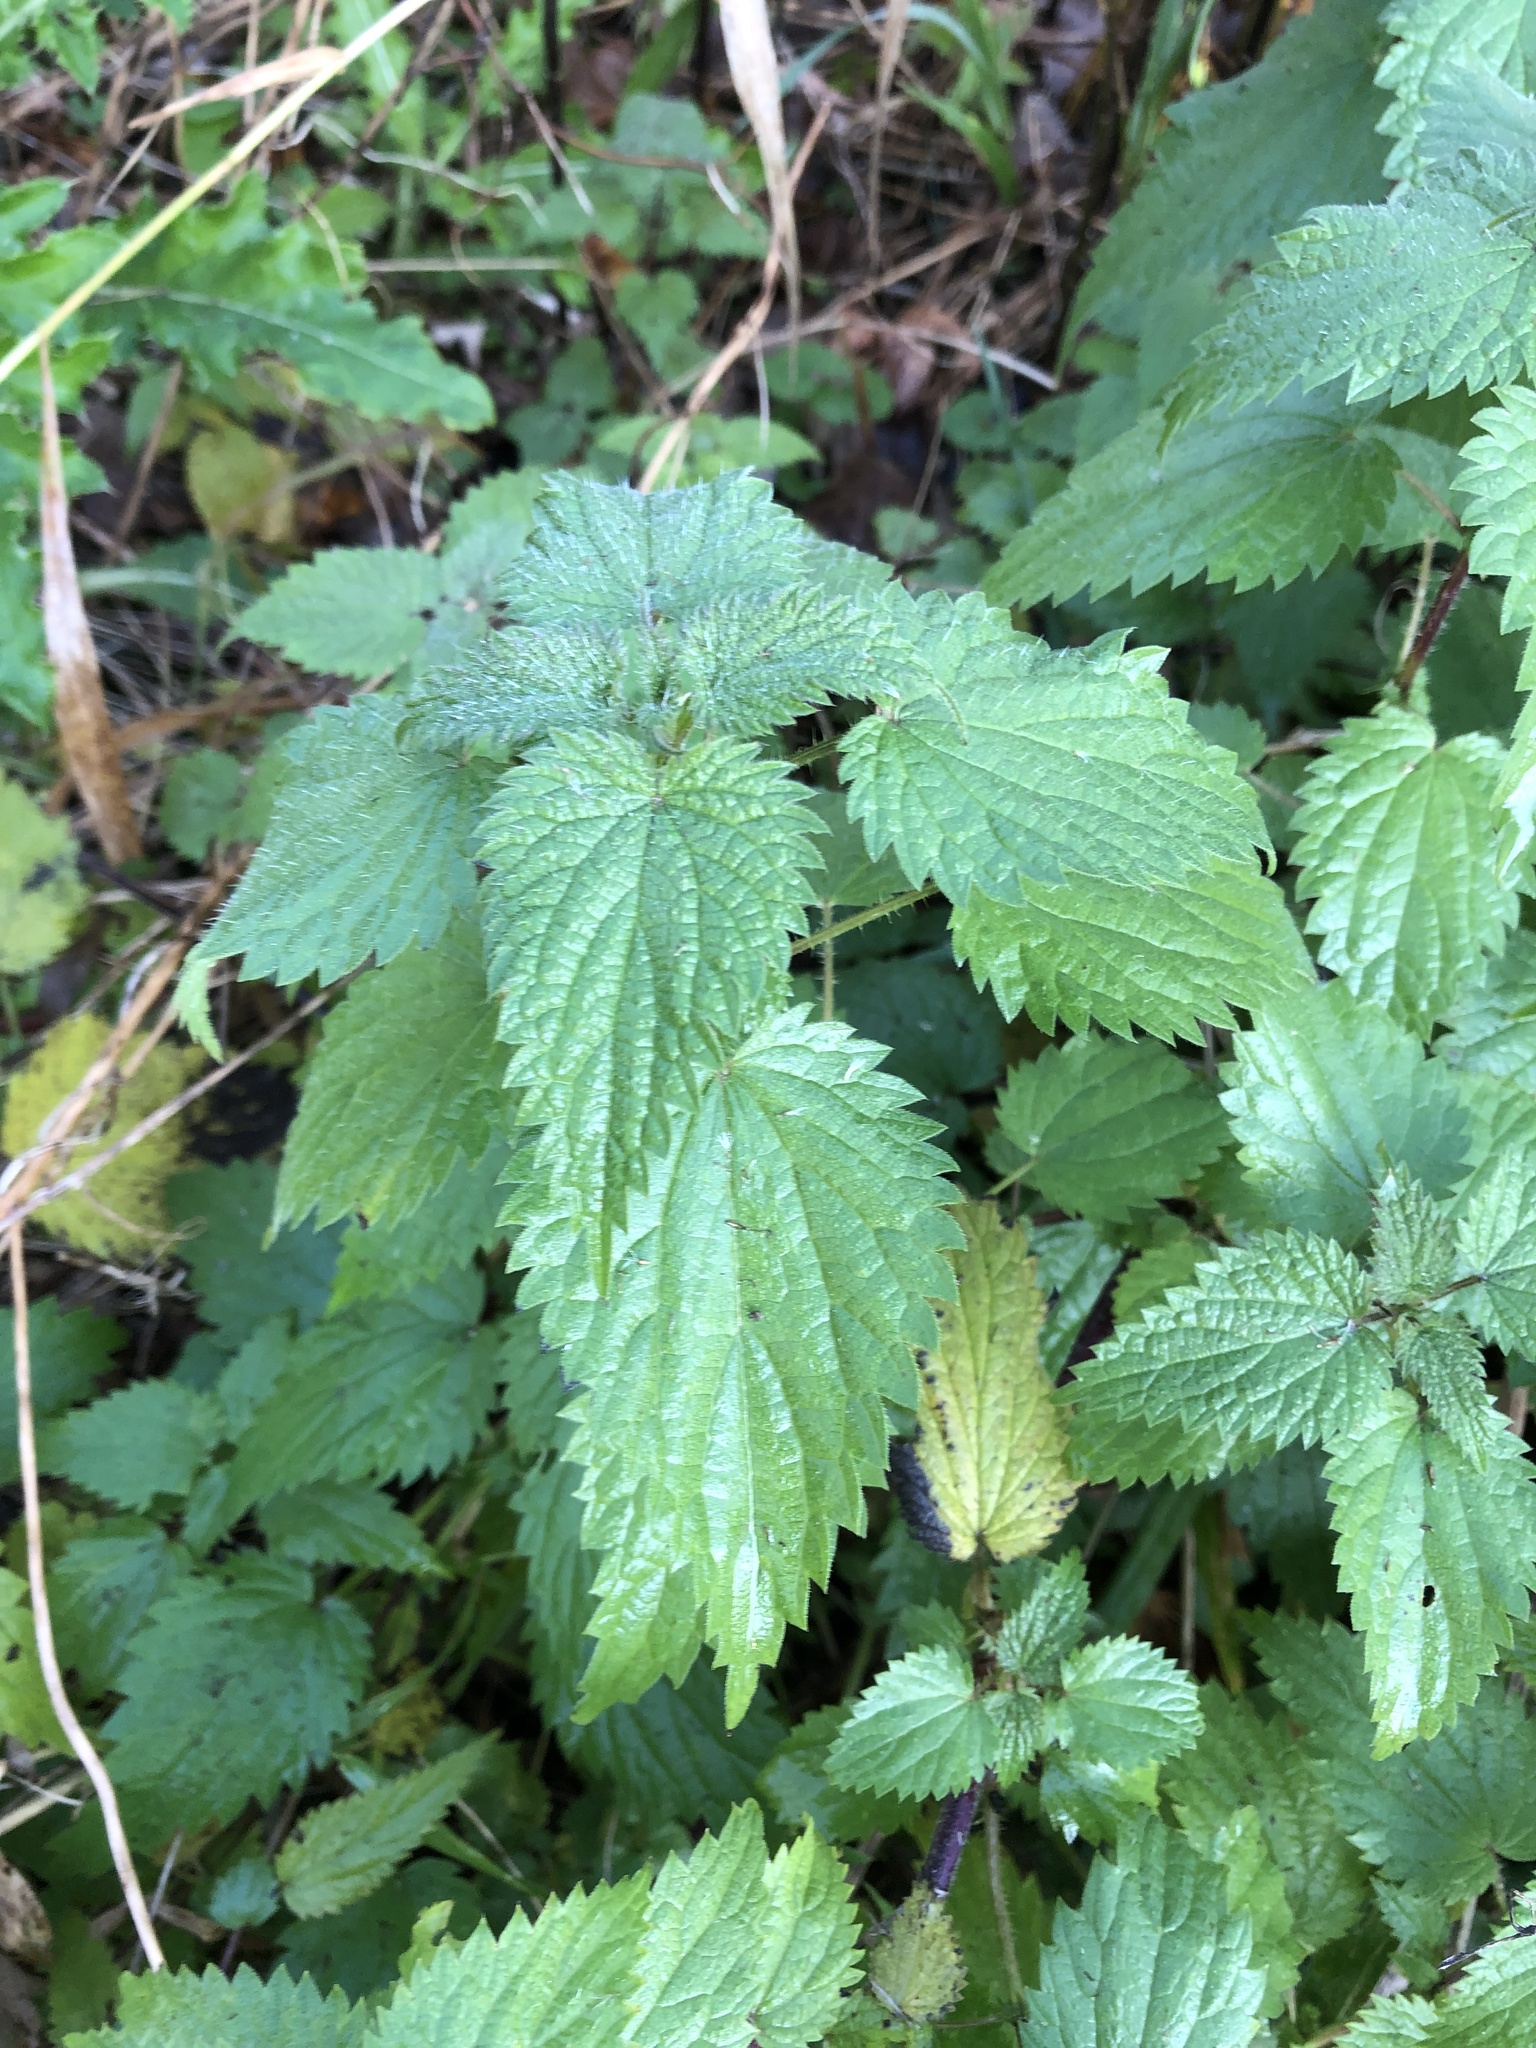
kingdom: Plantae
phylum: Tracheophyta
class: Magnoliopsida
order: Rosales
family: Urticaceae
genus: Urtica
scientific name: Urtica dioica
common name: Common nettle
